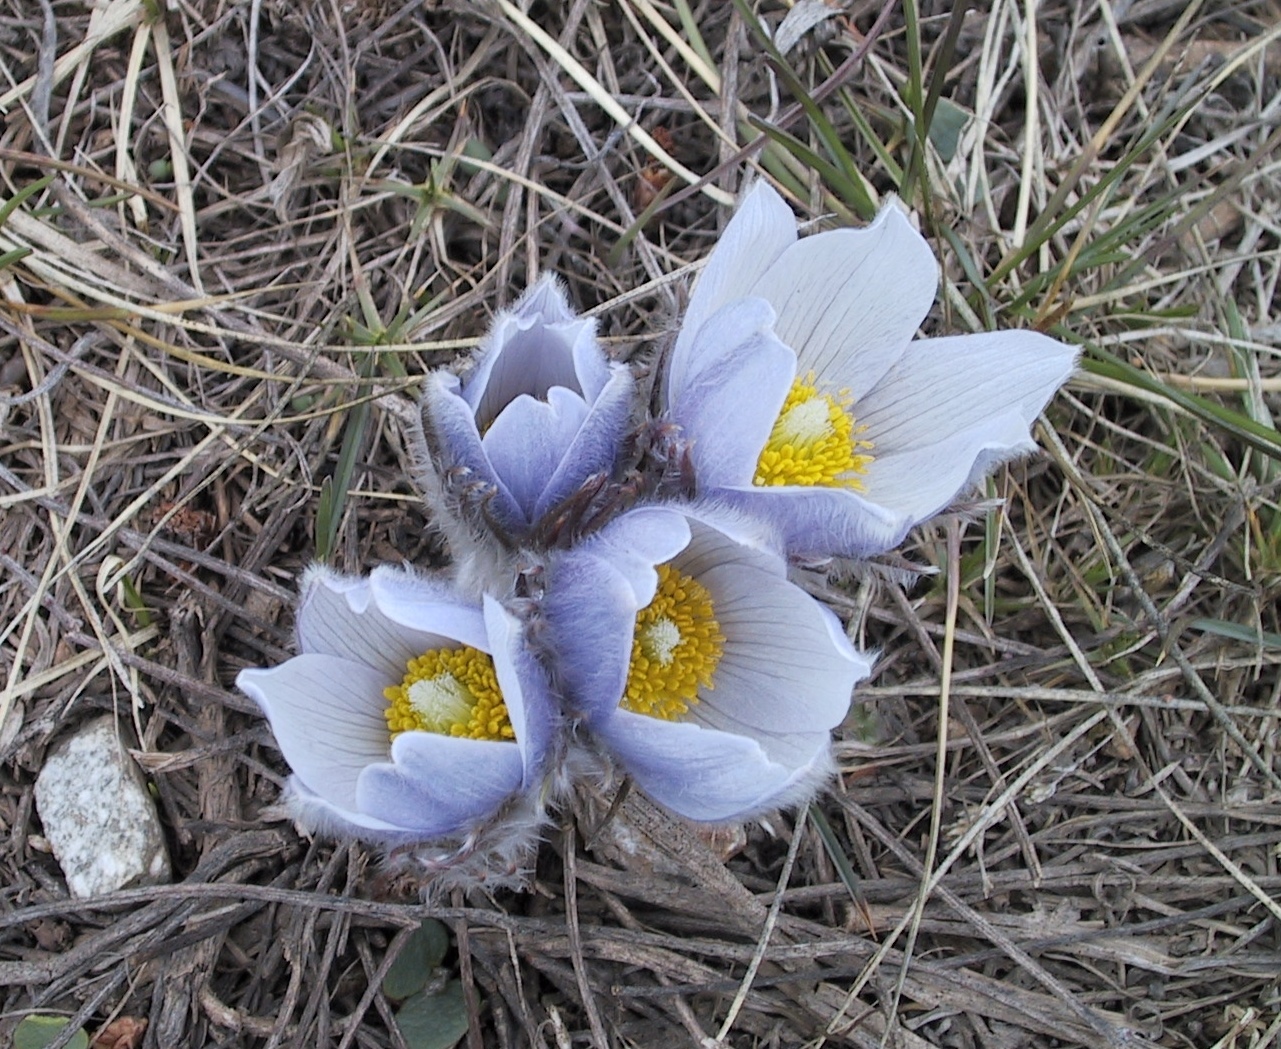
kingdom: Plantae
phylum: Tracheophyta
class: Magnoliopsida
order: Ranunculales
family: Ranunculaceae
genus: Pulsatilla
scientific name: Pulsatilla nuttalliana
